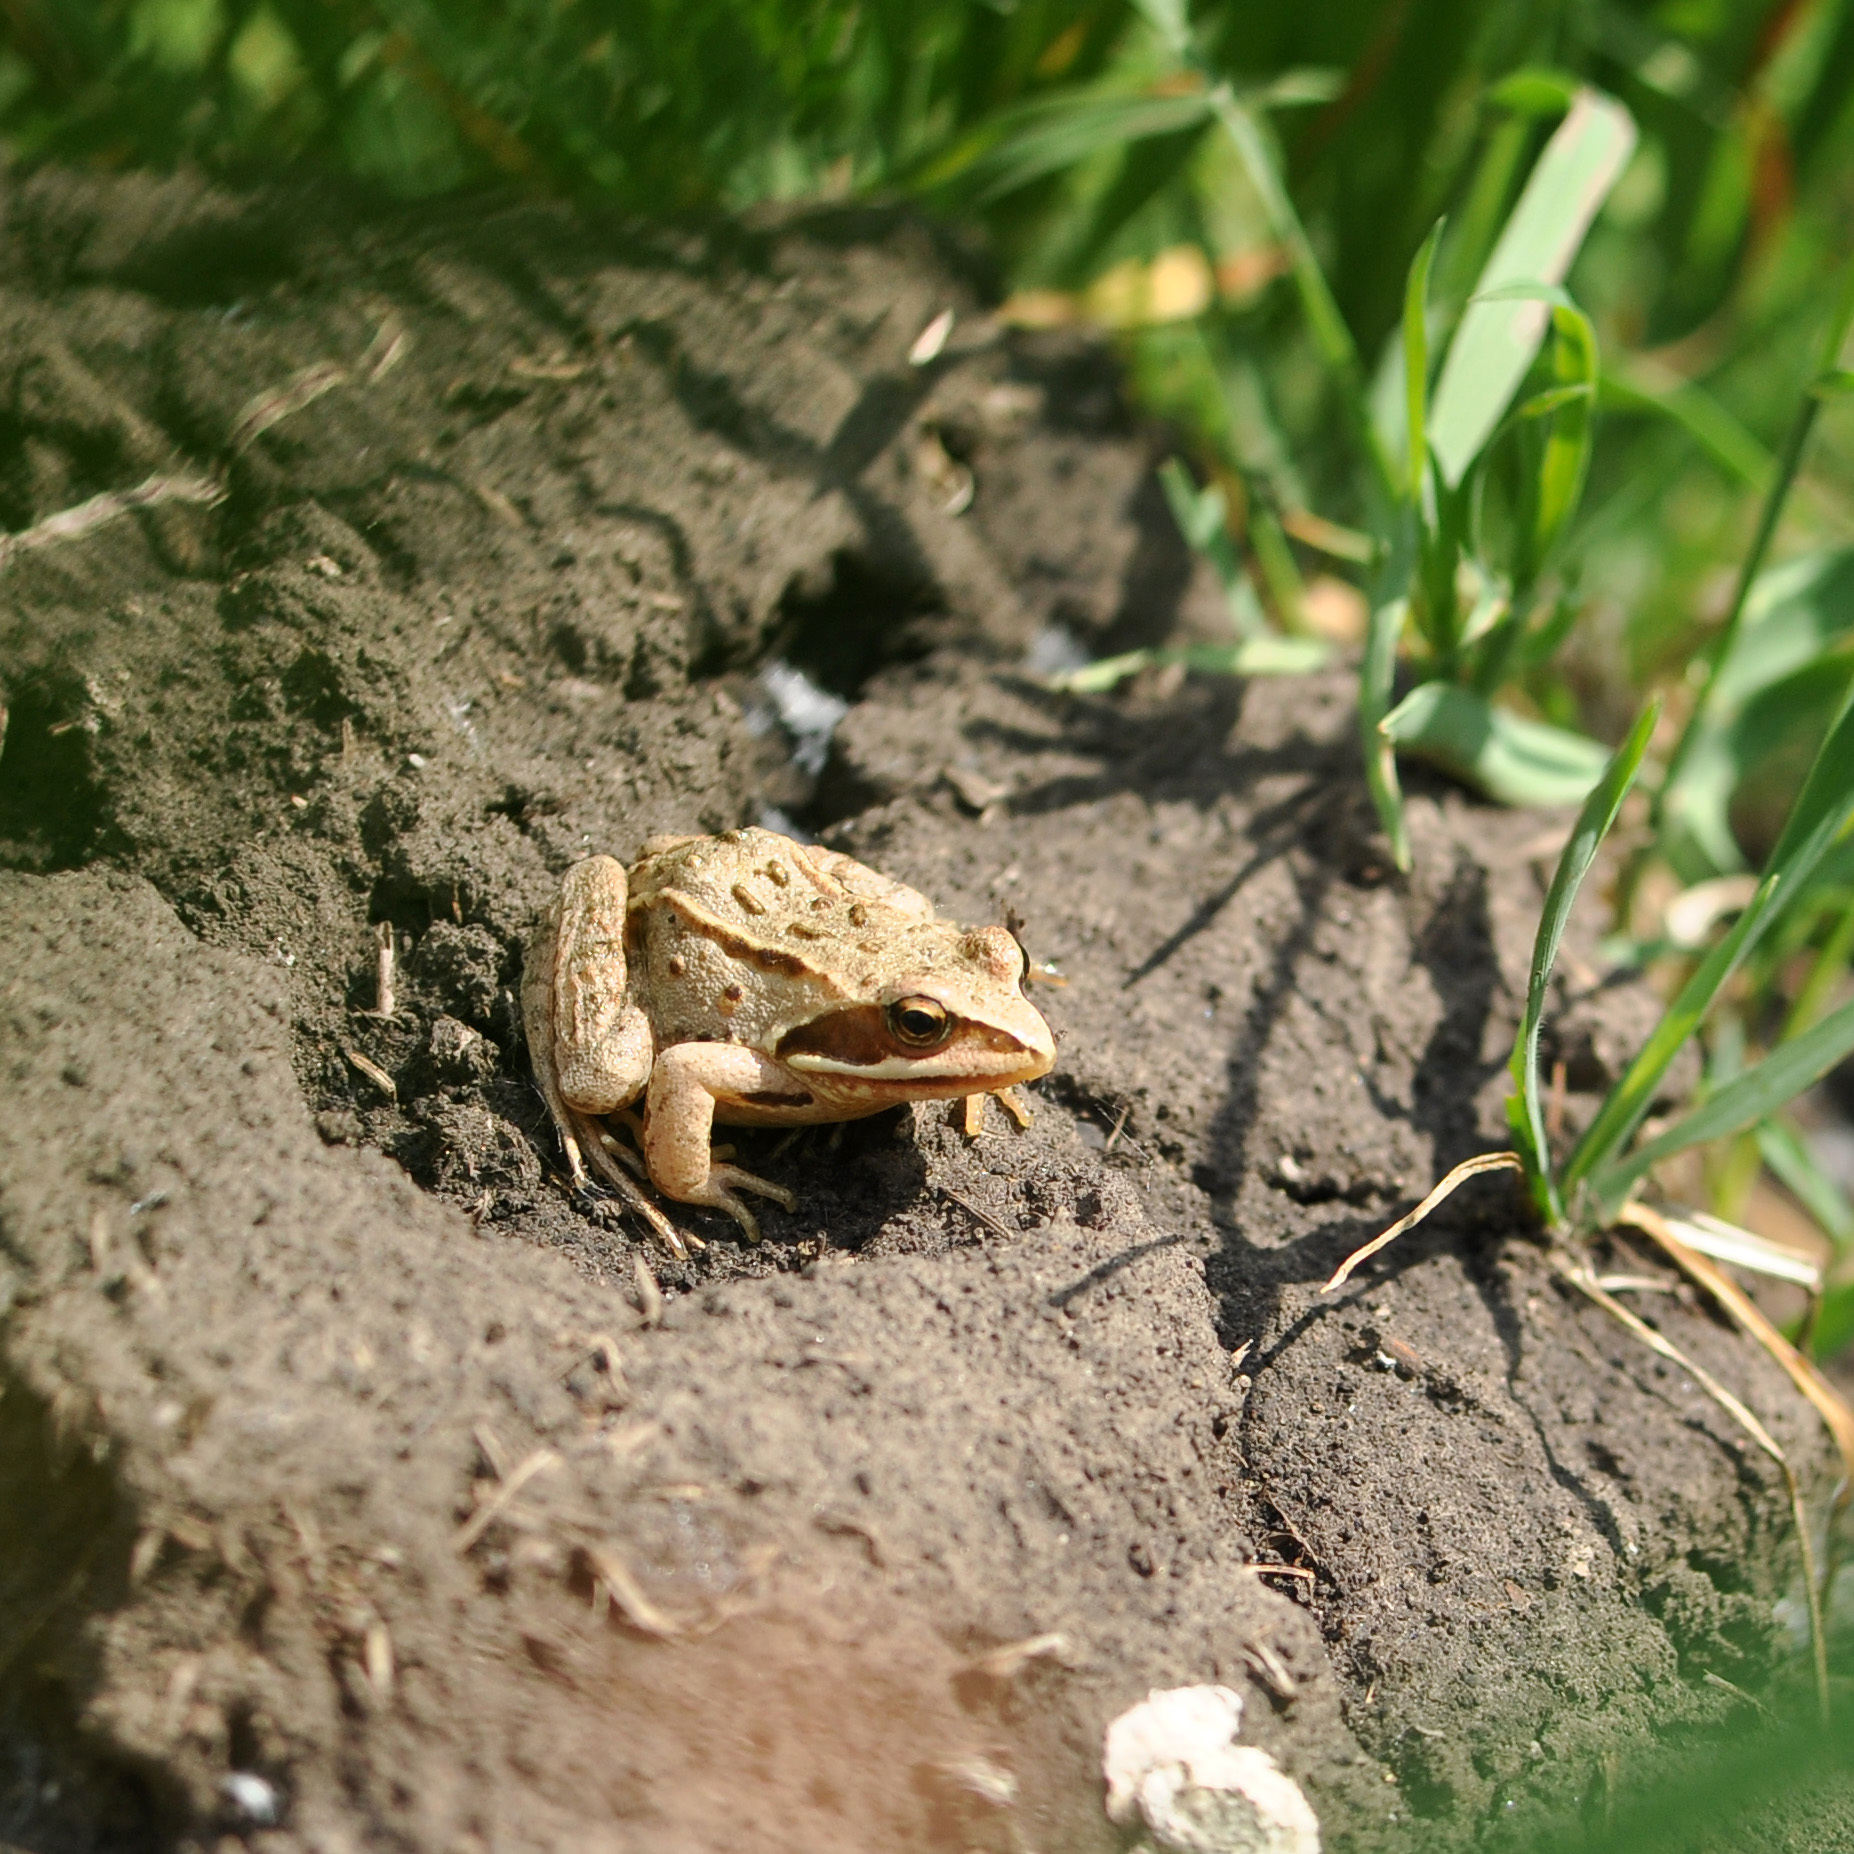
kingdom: Animalia
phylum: Chordata
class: Amphibia
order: Anura
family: Ranidae
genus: Rana
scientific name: Rana arvalis
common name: Moor frog
